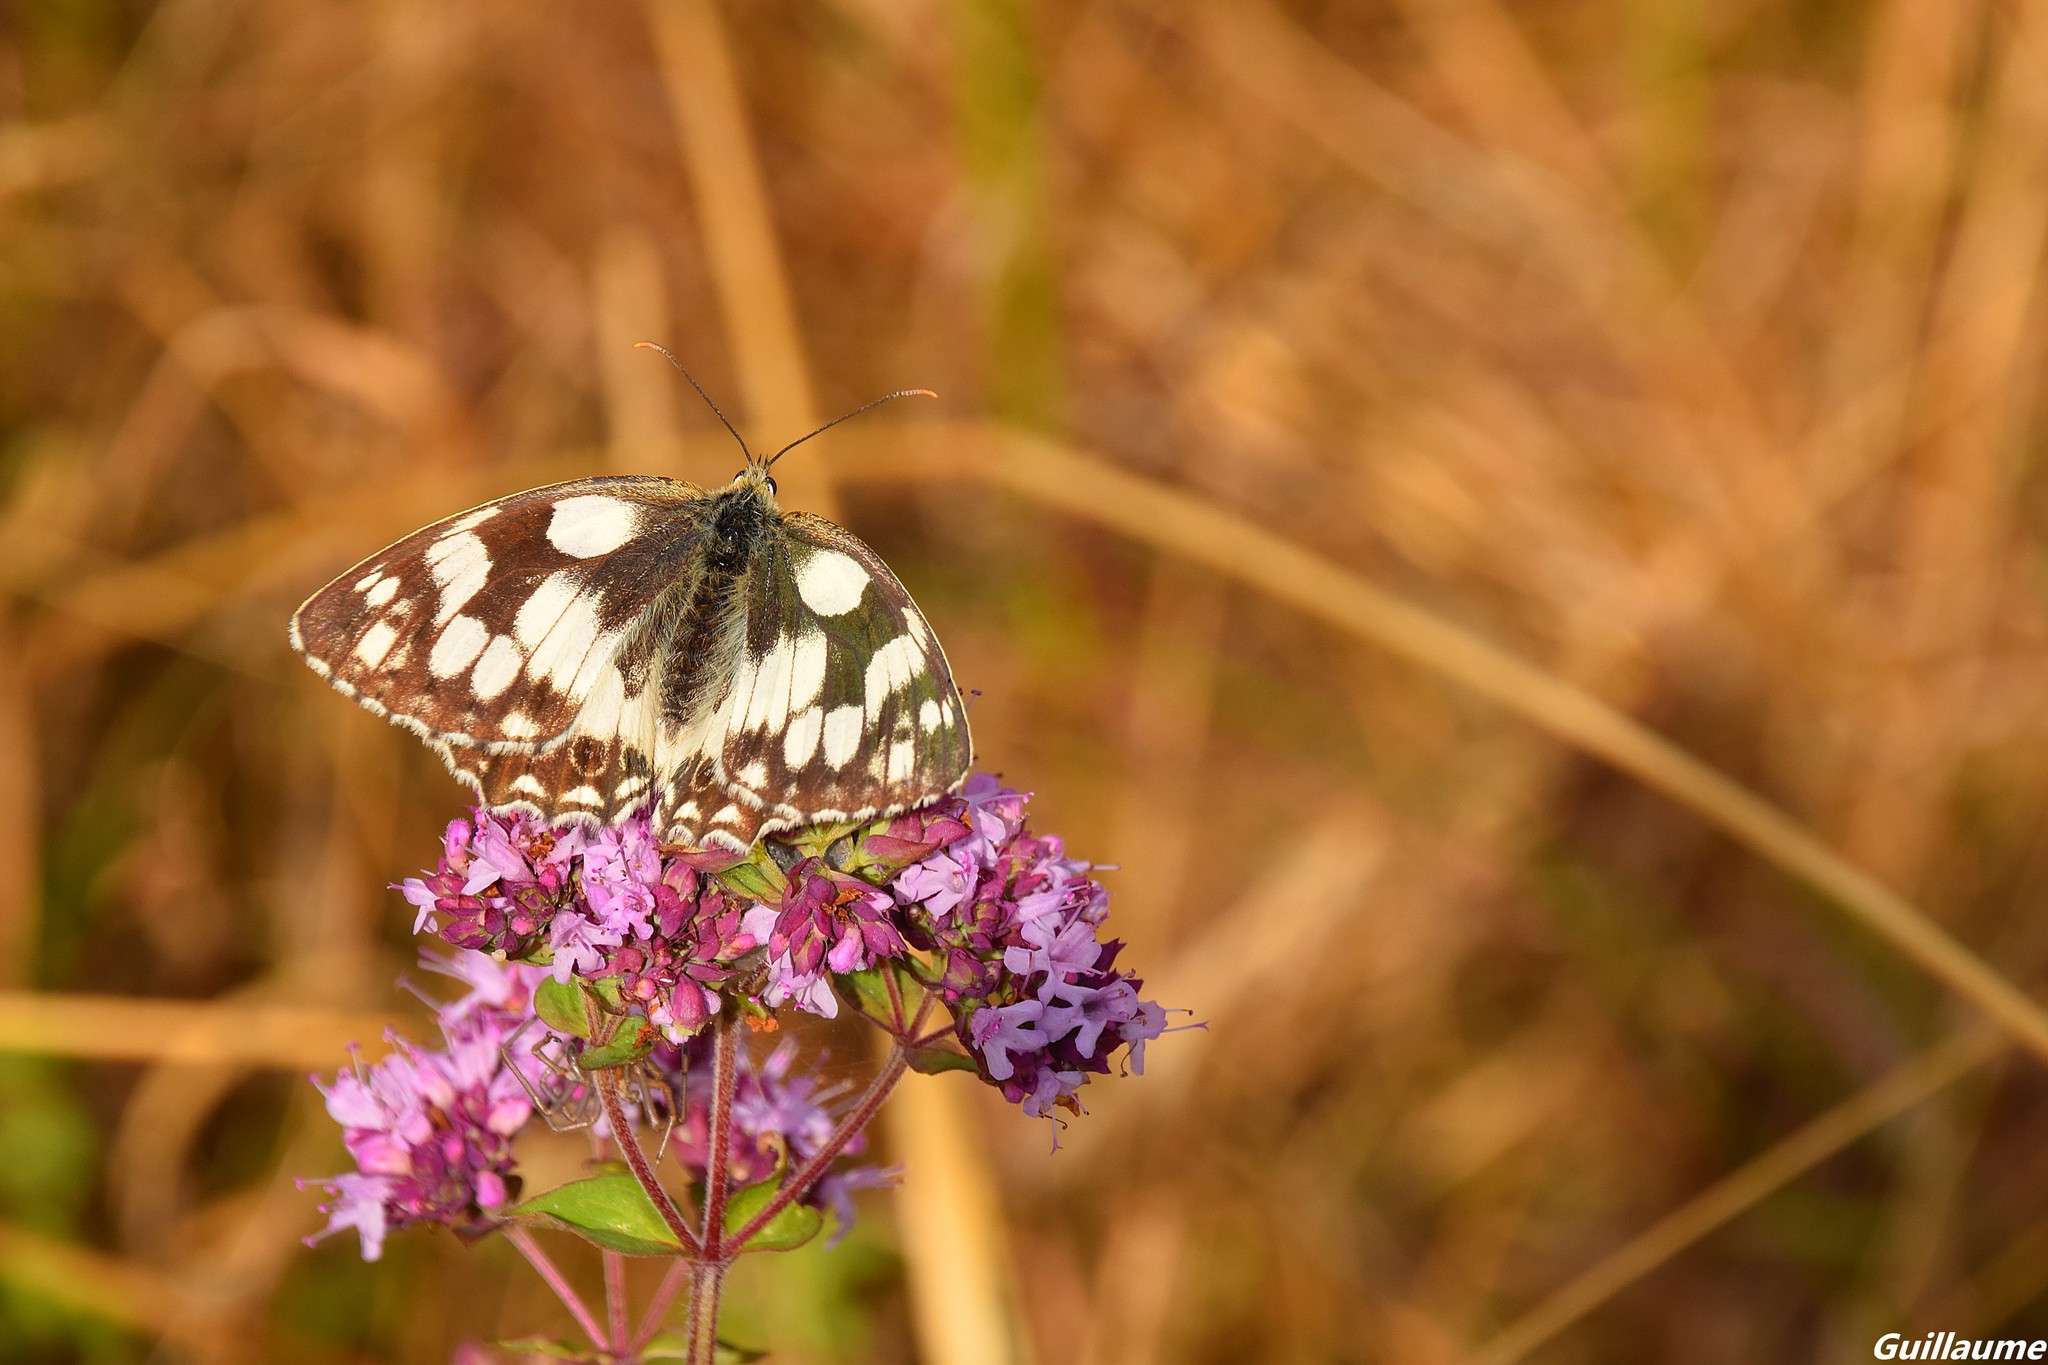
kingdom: Animalia
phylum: Arthropoda
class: Insecta
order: Lepidoptera
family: Nymphalidae
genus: Melanargia
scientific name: Melanargia galathea
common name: Marbled white
